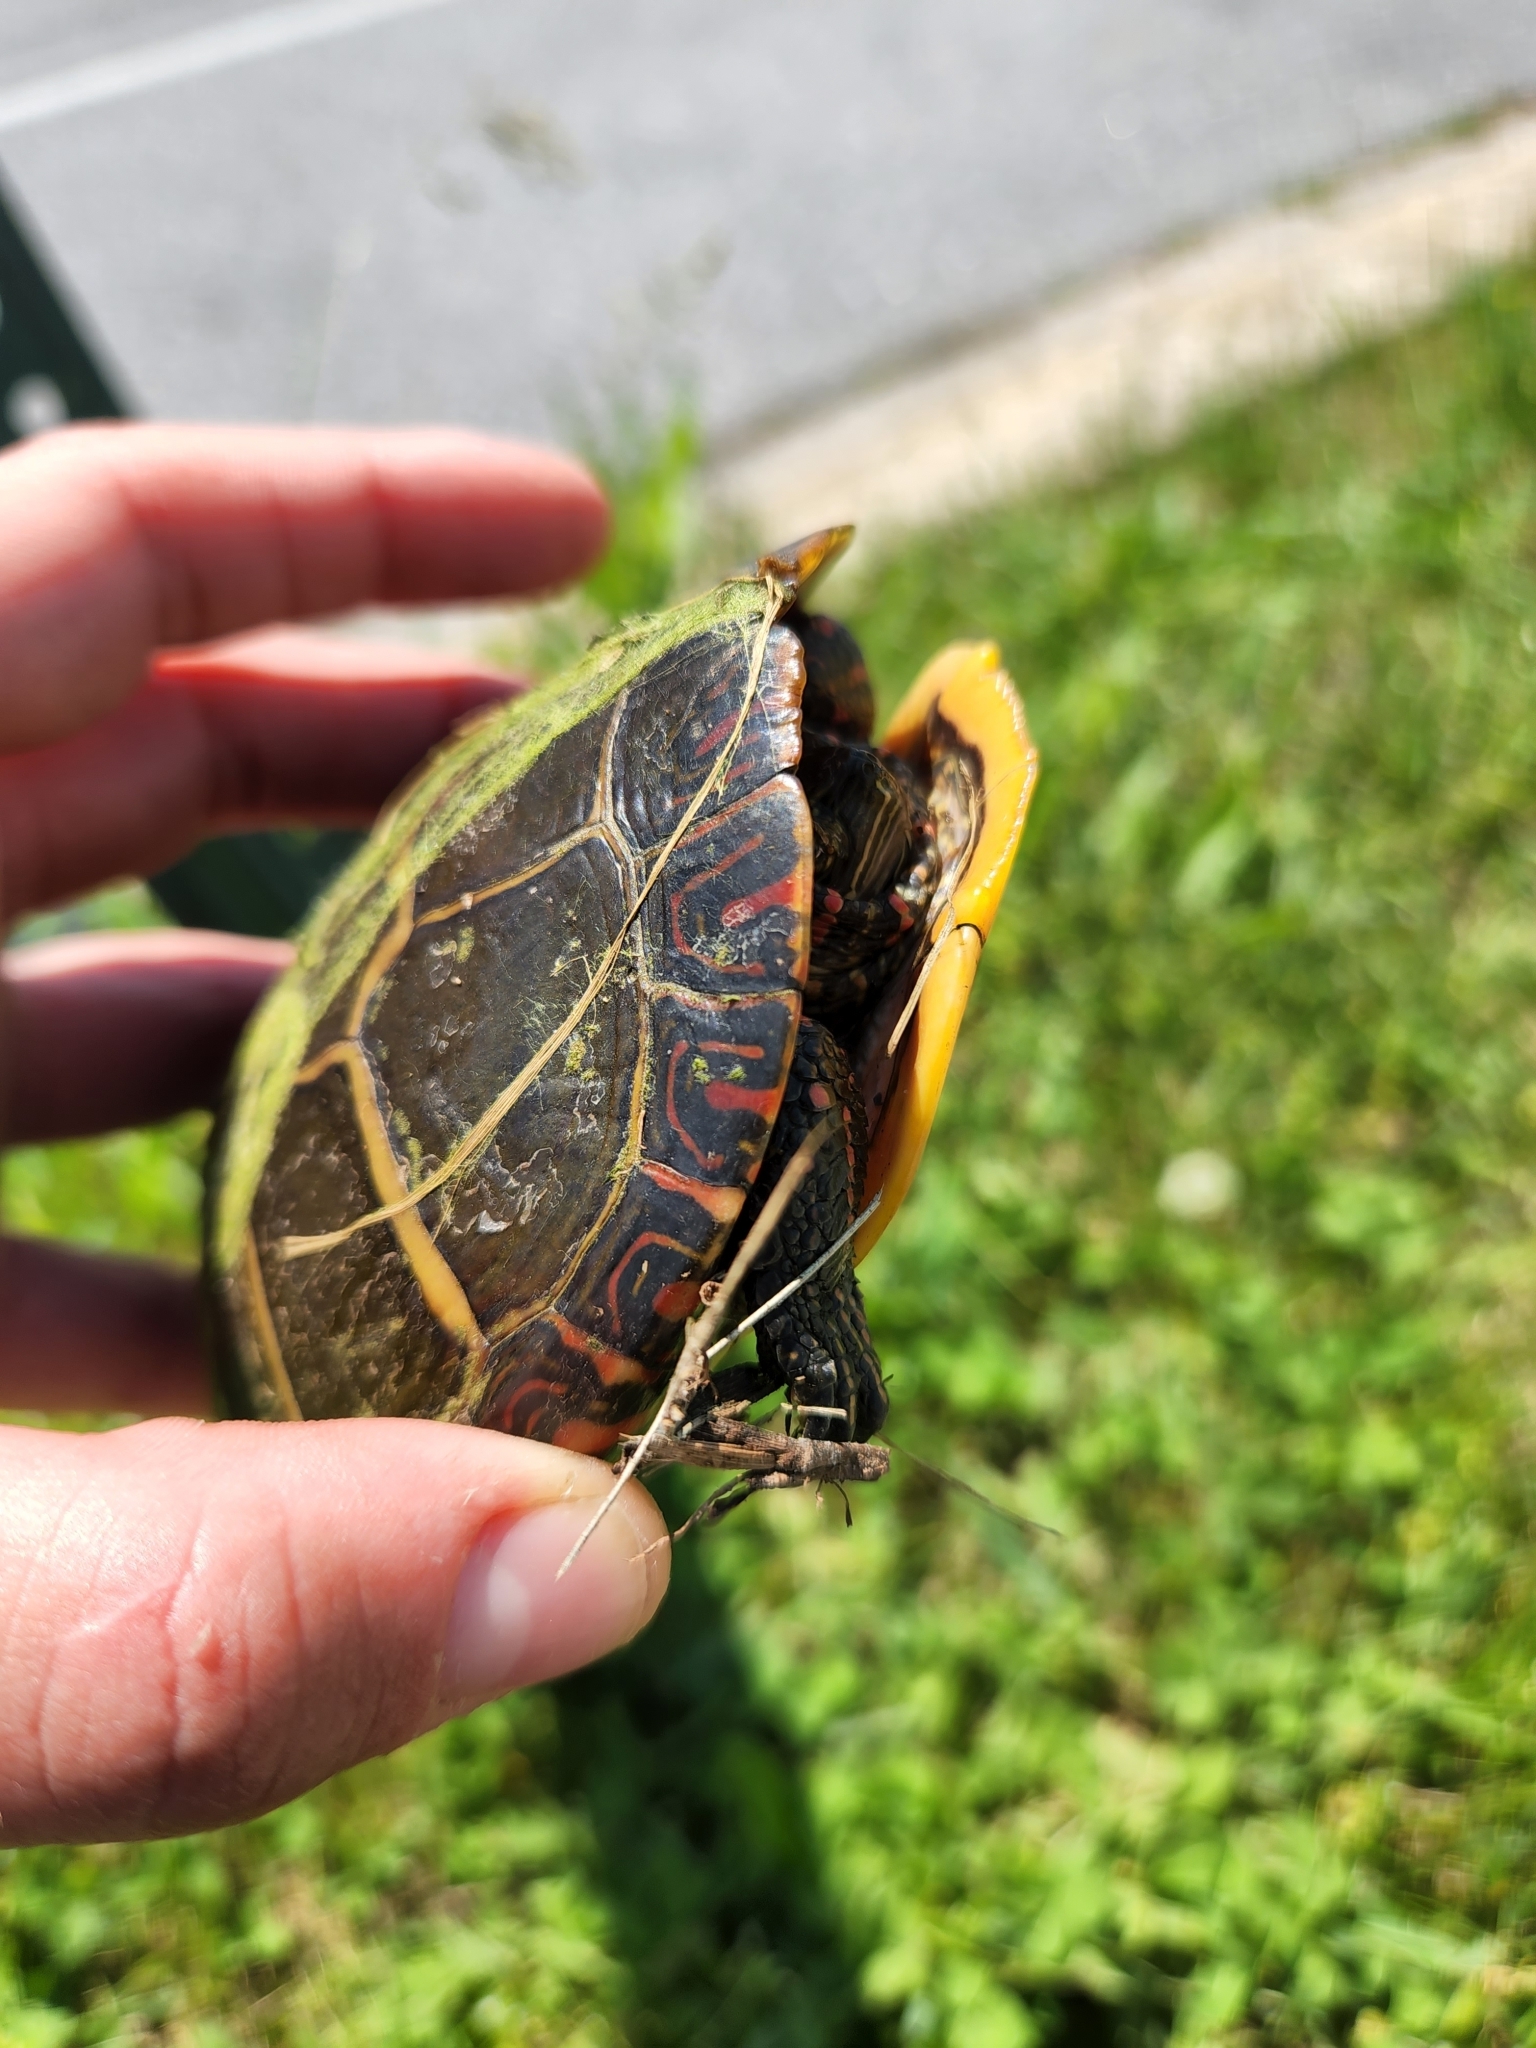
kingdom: Animalia
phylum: Chordata
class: Testudines
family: Emydidae
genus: Chrysemys
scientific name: Chrysemys picta
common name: Painted turtle
